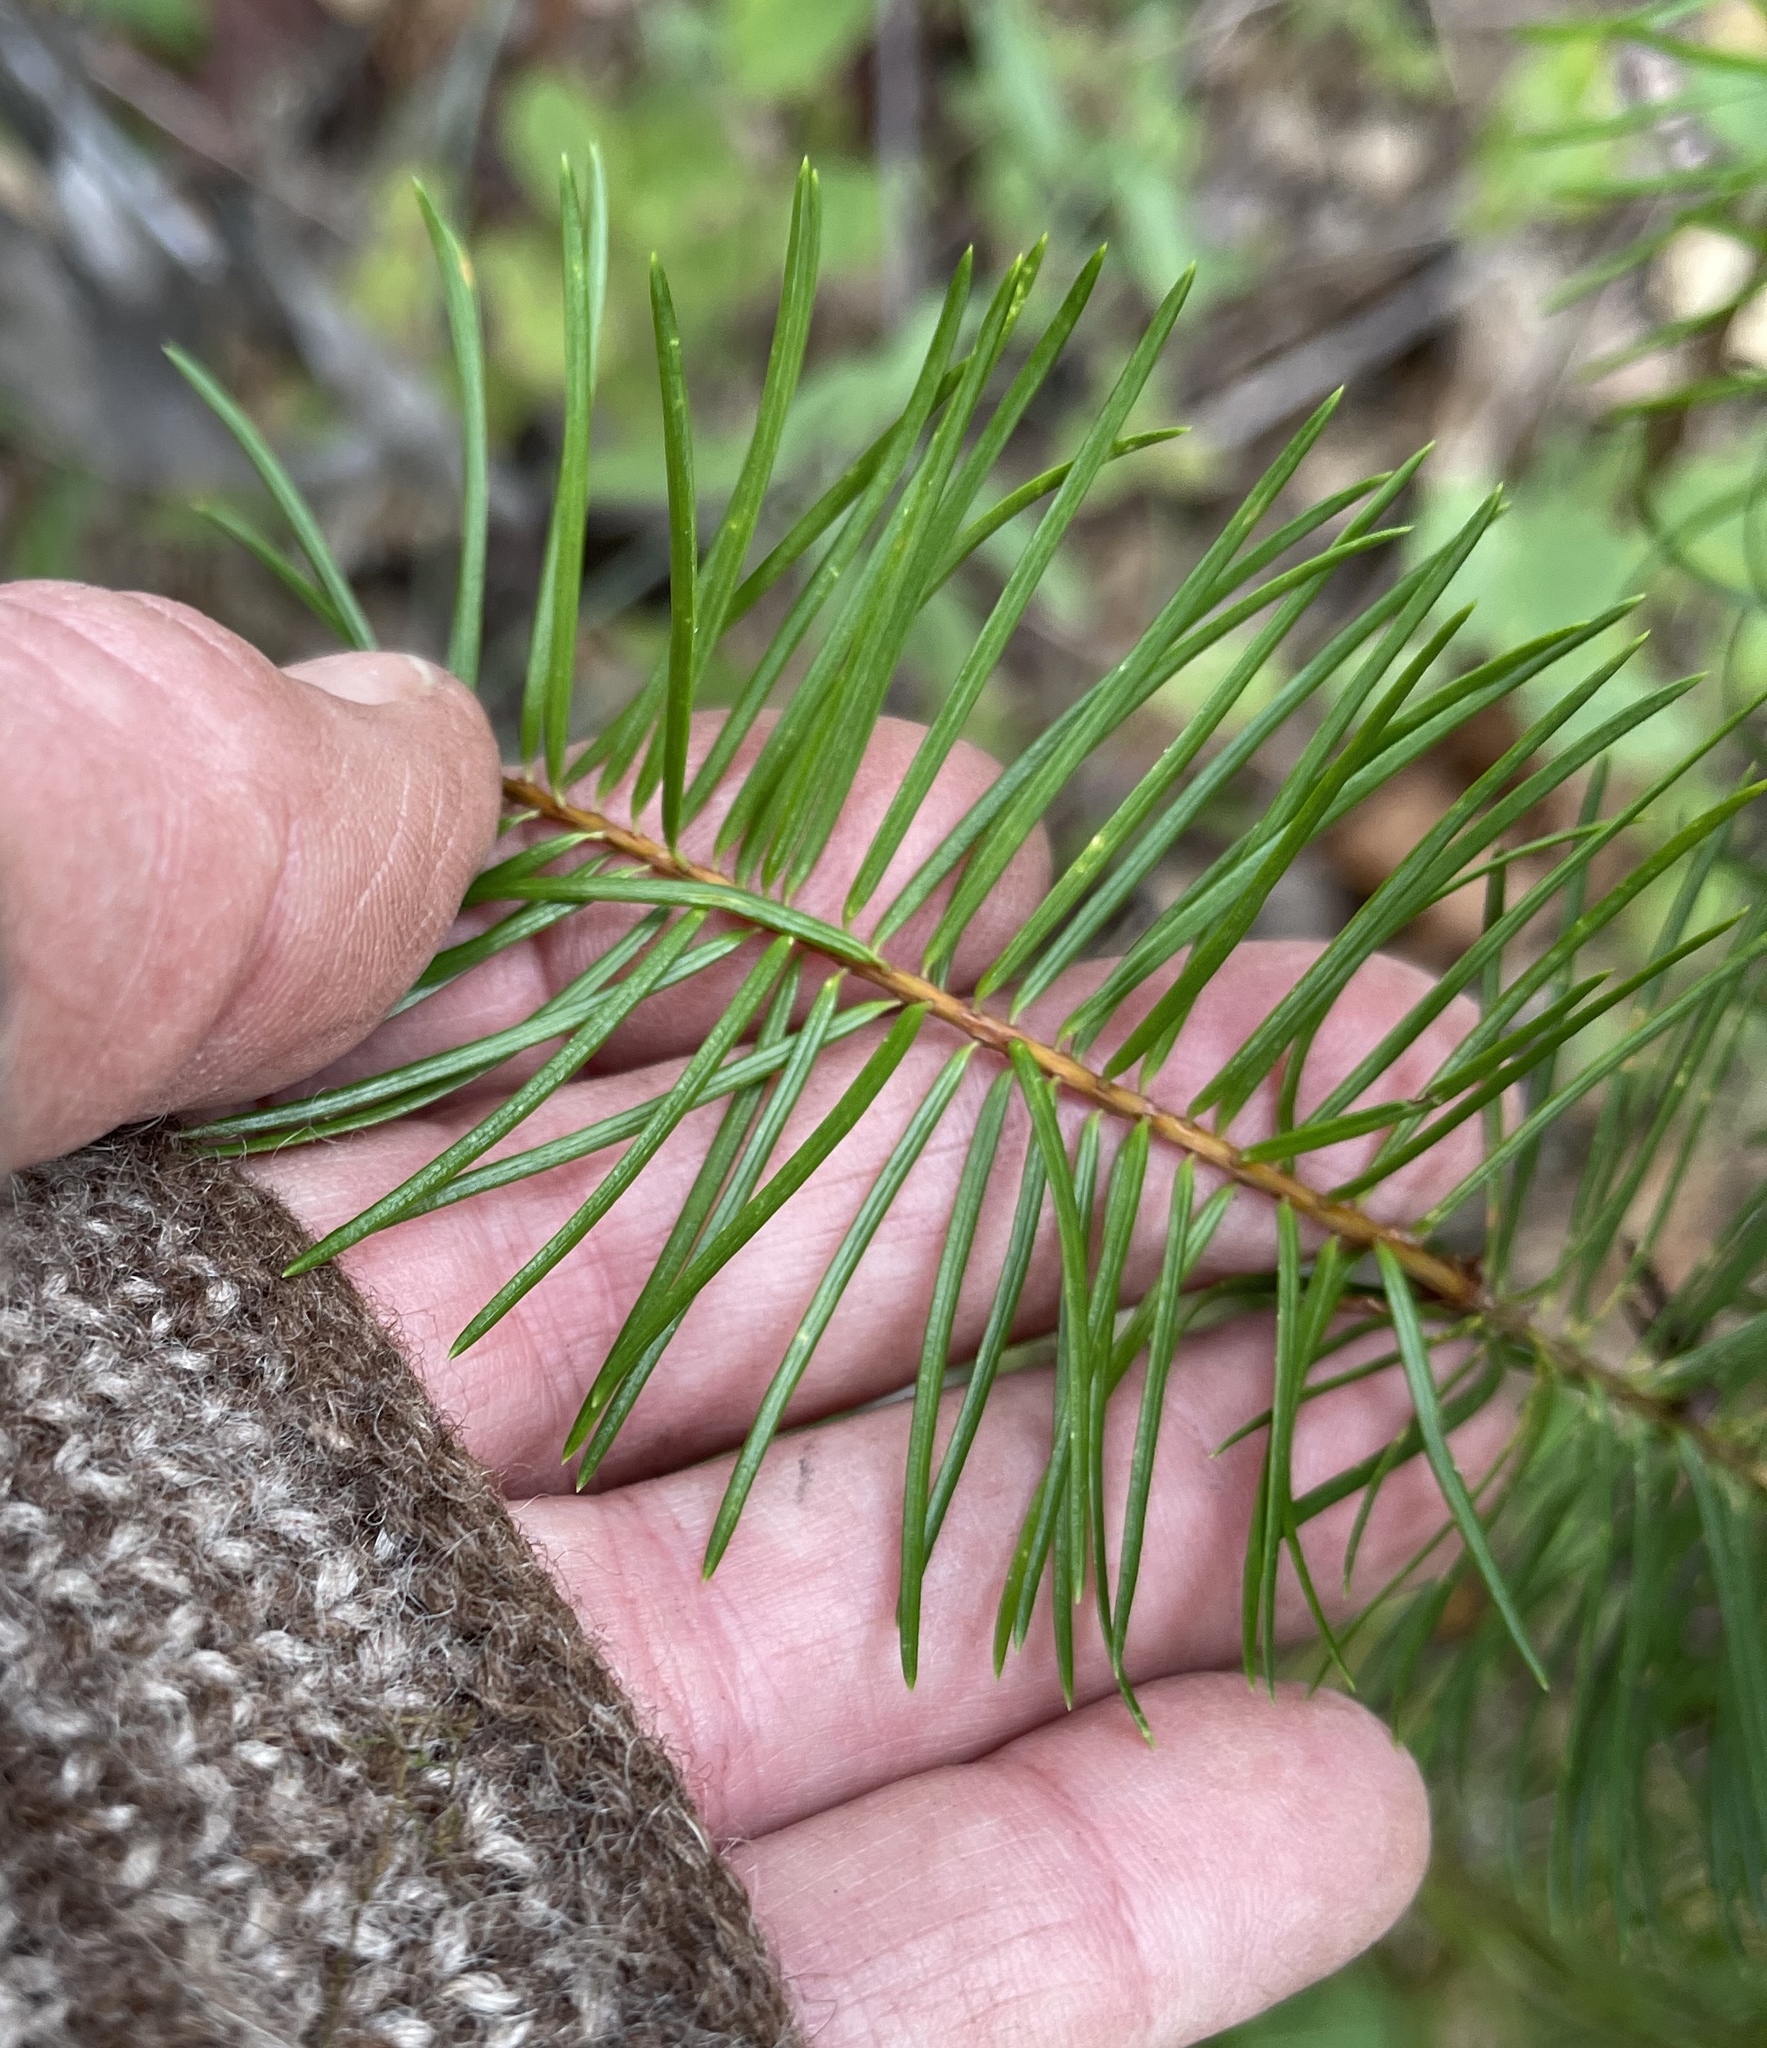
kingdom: Plantae
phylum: Tracheophyta
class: Pinopsida
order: Pinales
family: Pinaceae
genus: Pseudotsuga
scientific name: Pseudotsuga menziesii
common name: Douglas fir
